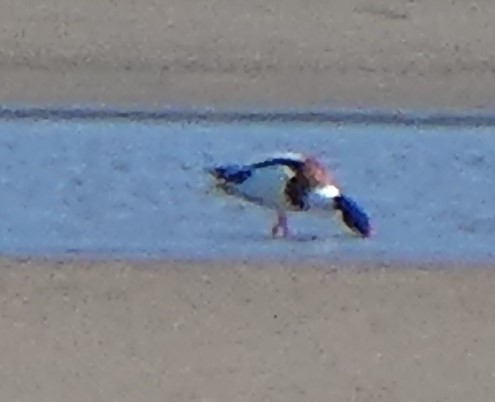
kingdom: Animalia
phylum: Chordata
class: Aves
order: Anseriformes
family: Anatidae
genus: Tadorna
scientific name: Tadorna tadorna
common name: Common shelduck
